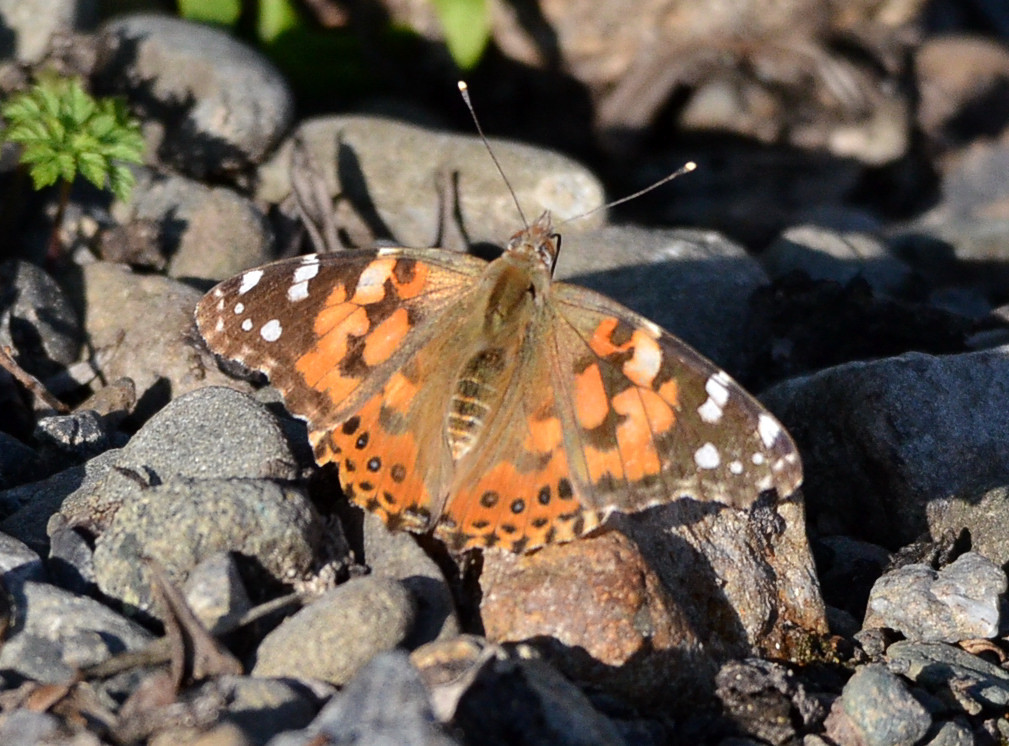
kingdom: Animalia
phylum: Arthropoda
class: Insecta
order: Lepidoptera
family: Nymphalidae
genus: Vanessa
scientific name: Vanessa cardui
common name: Painted lady
